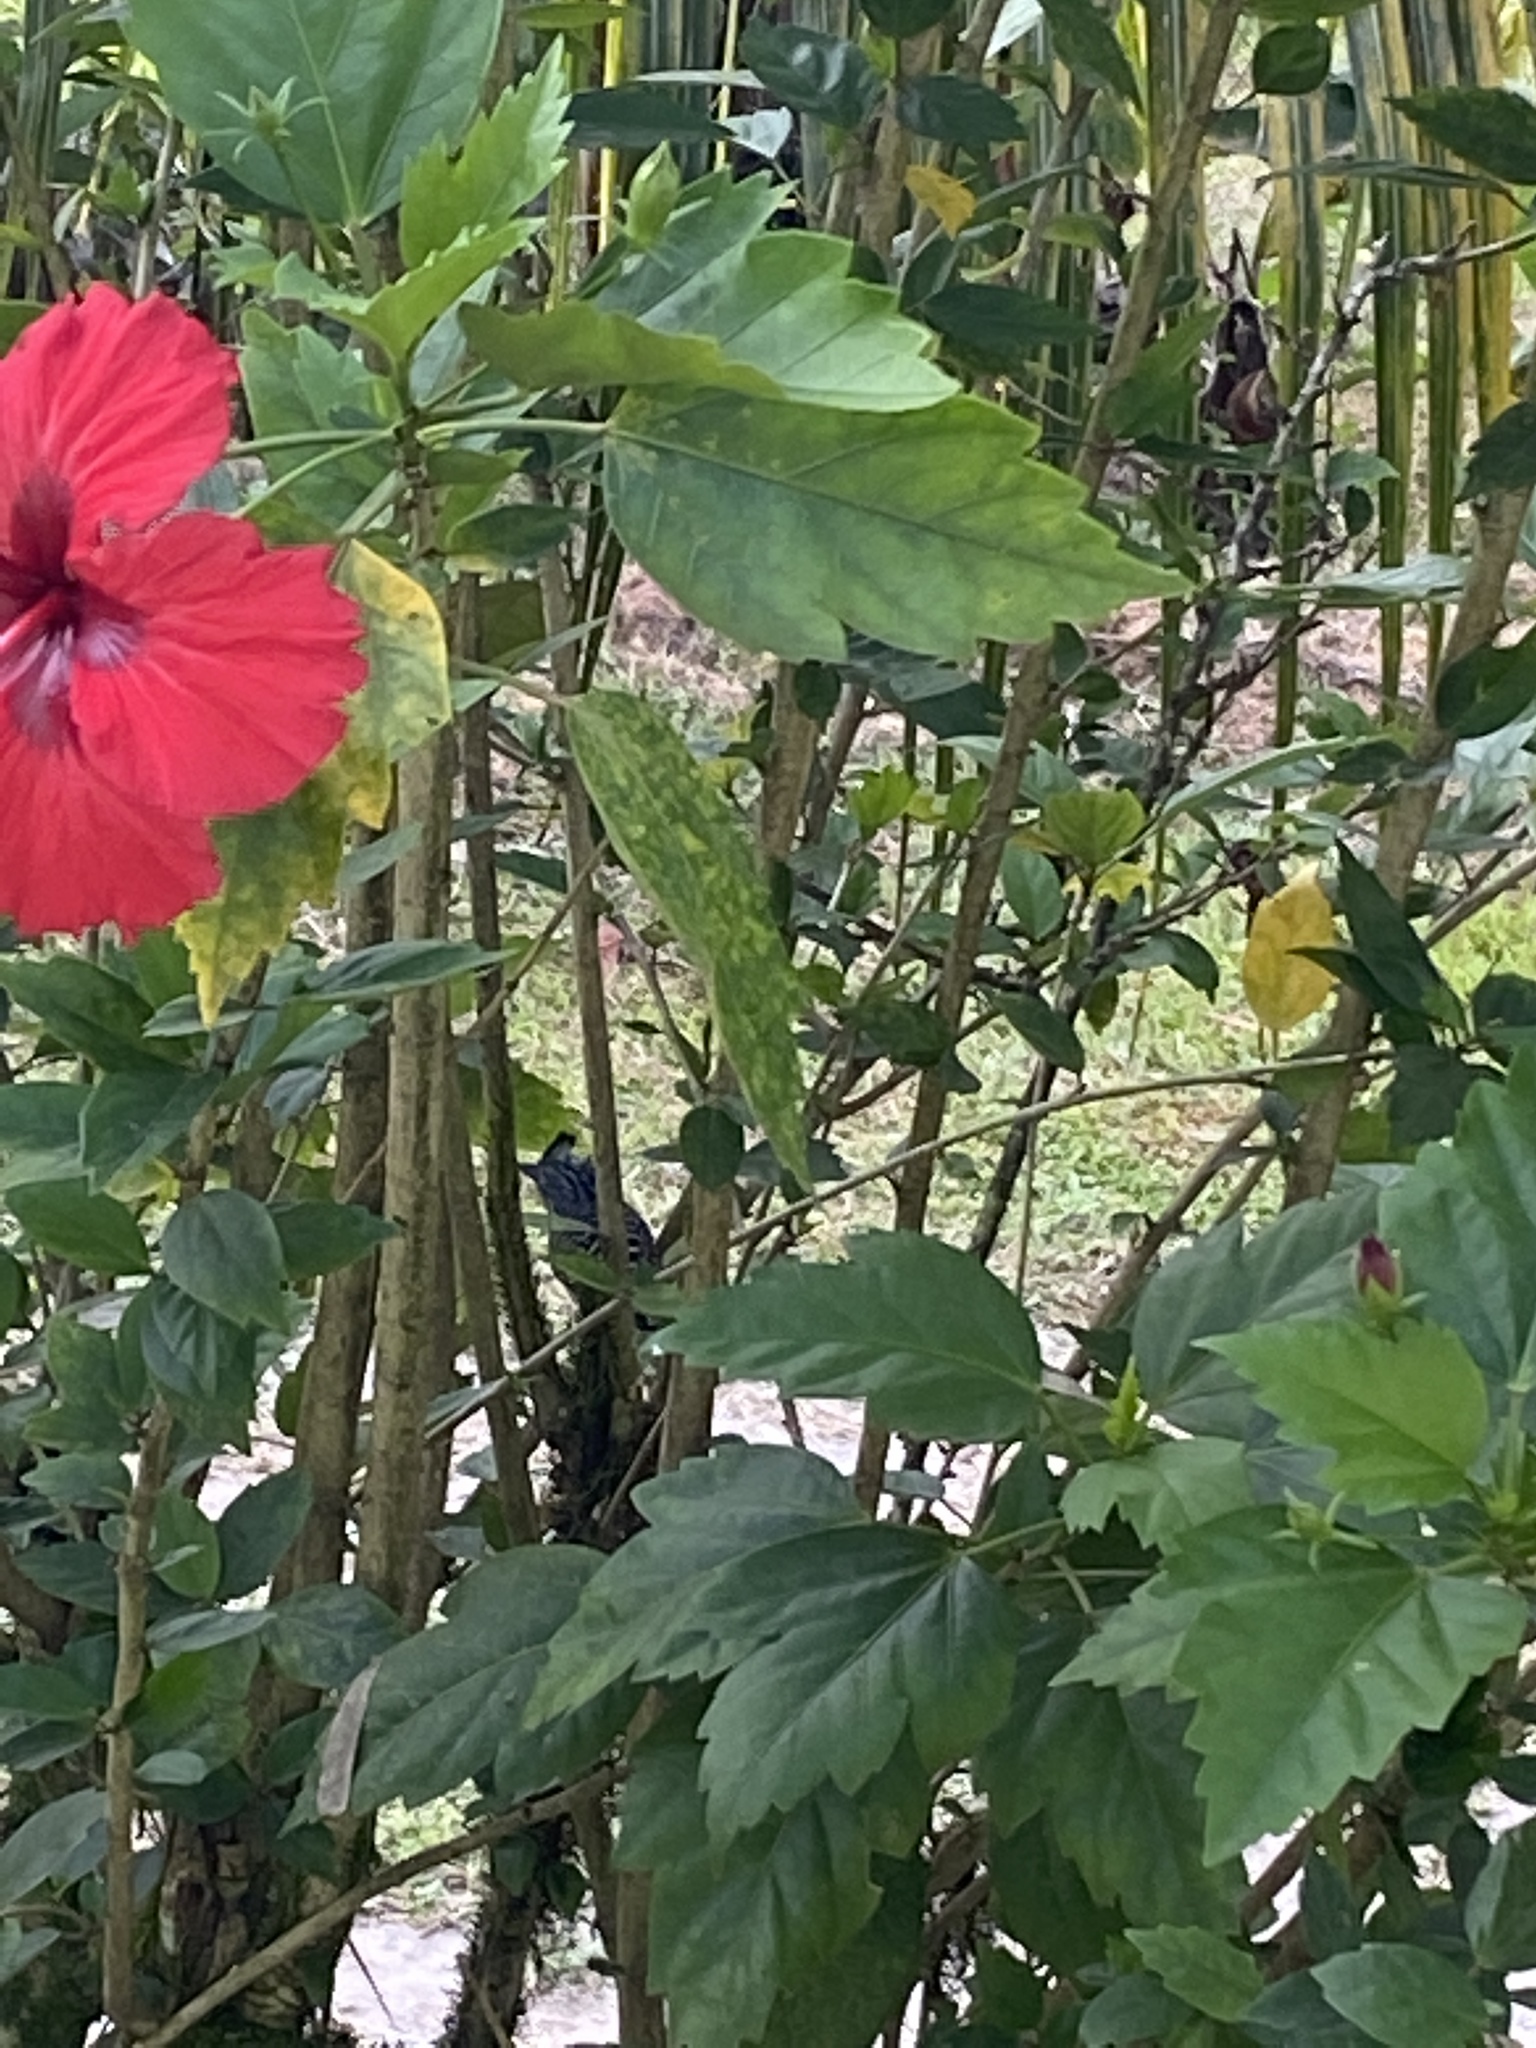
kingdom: Animalia
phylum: Chordata
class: Aves
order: Passeriformes
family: Thamnophilidae
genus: Thamnophilus
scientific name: Thamnophilus doliatus
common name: Barred antshrike
